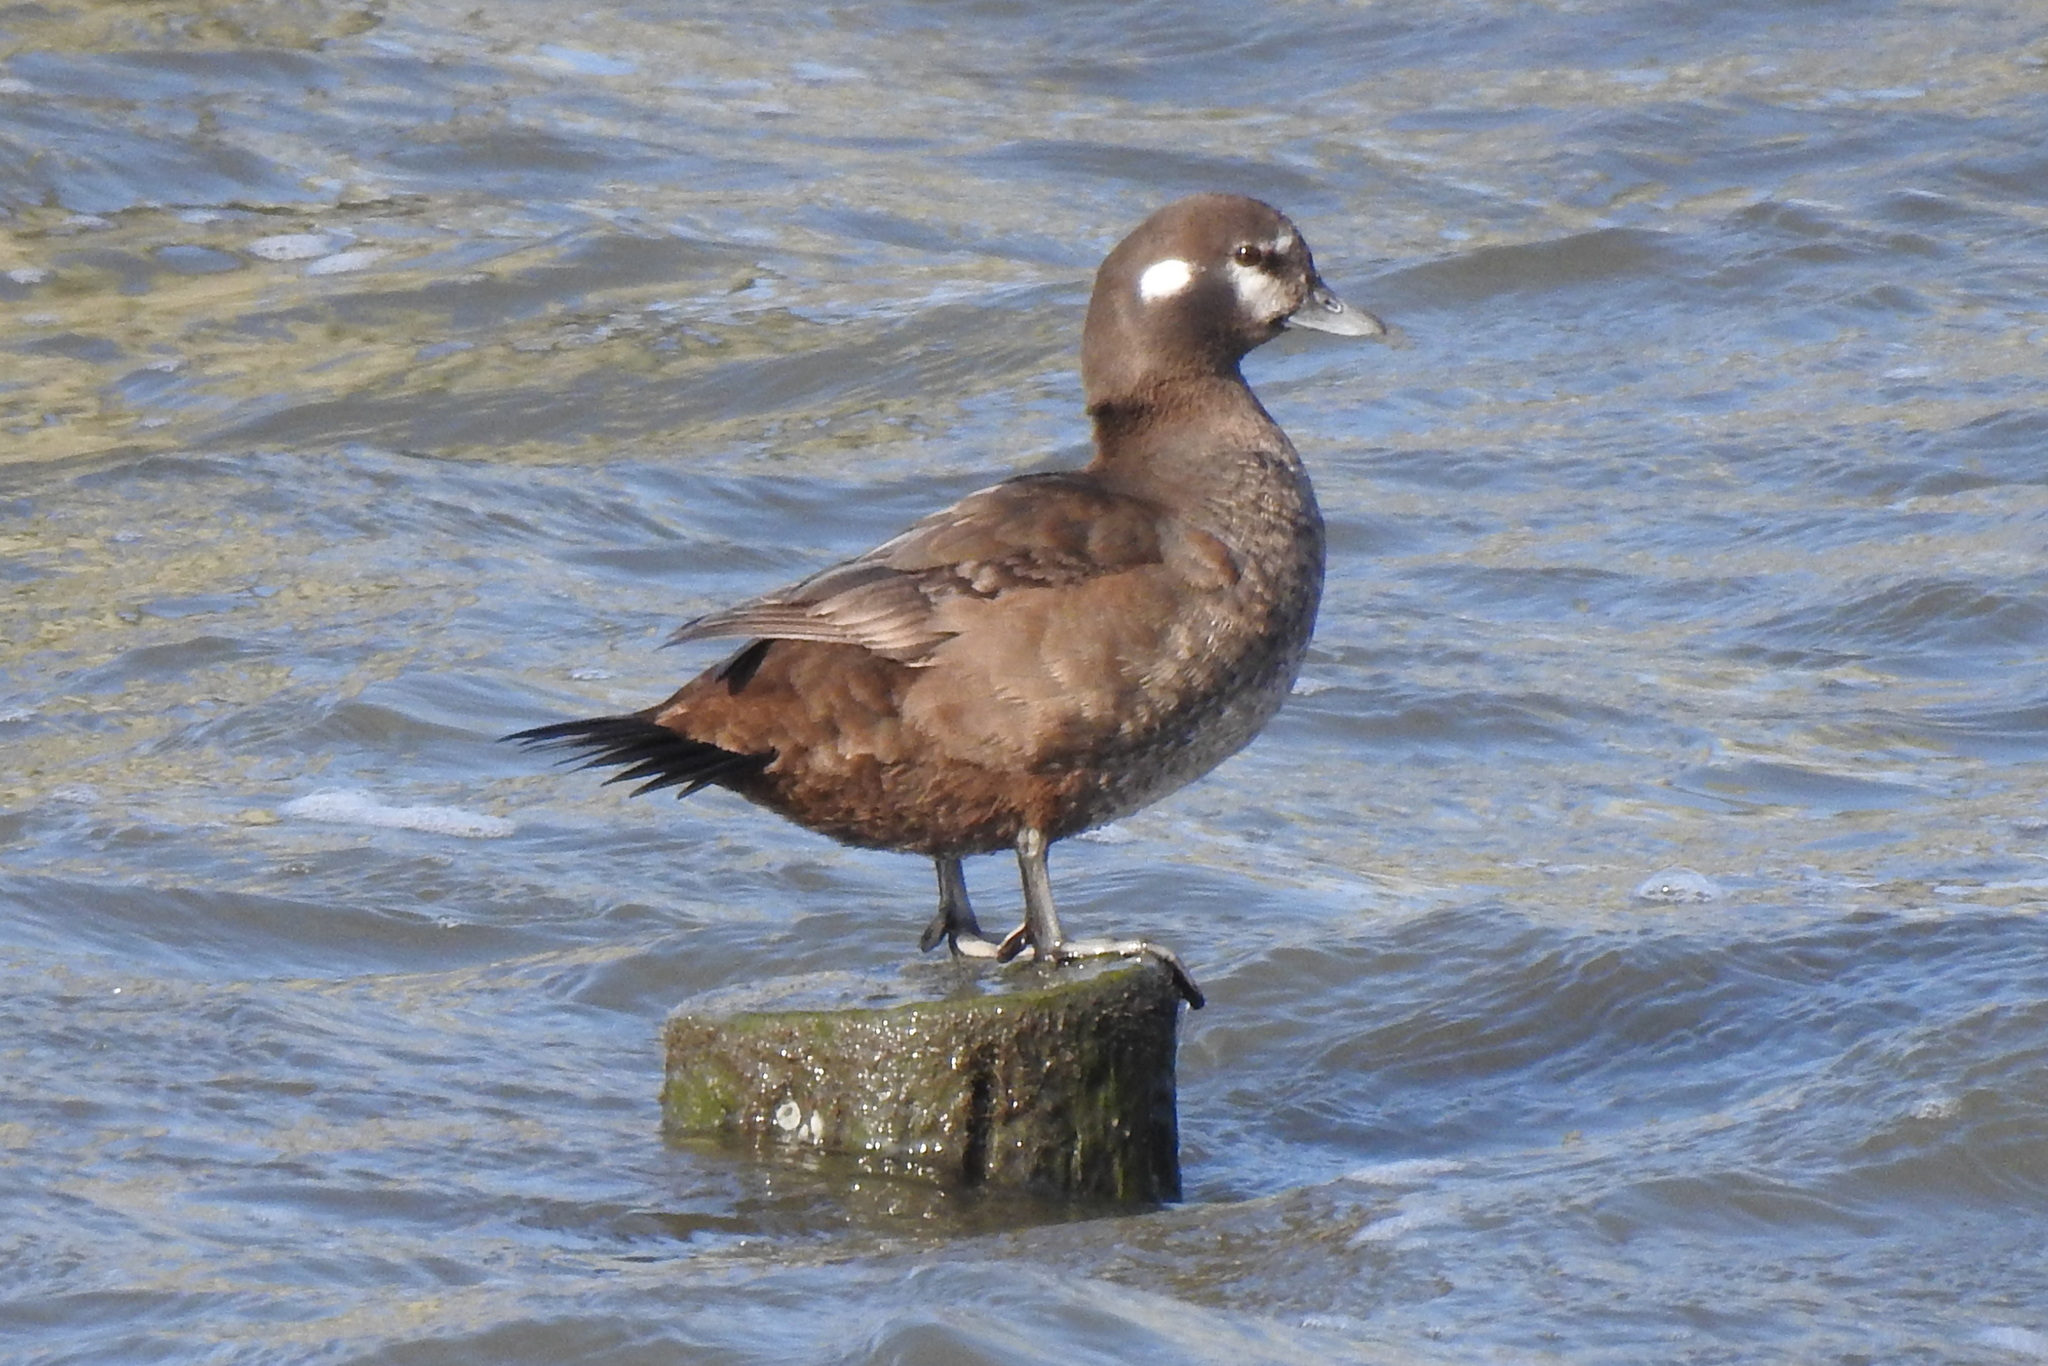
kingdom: Animalia
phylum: Chordata
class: Aves
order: Anseriformes
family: Anatidae
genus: Histrionicus
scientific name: Histrionicus histrionicus
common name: Harlequin duck
